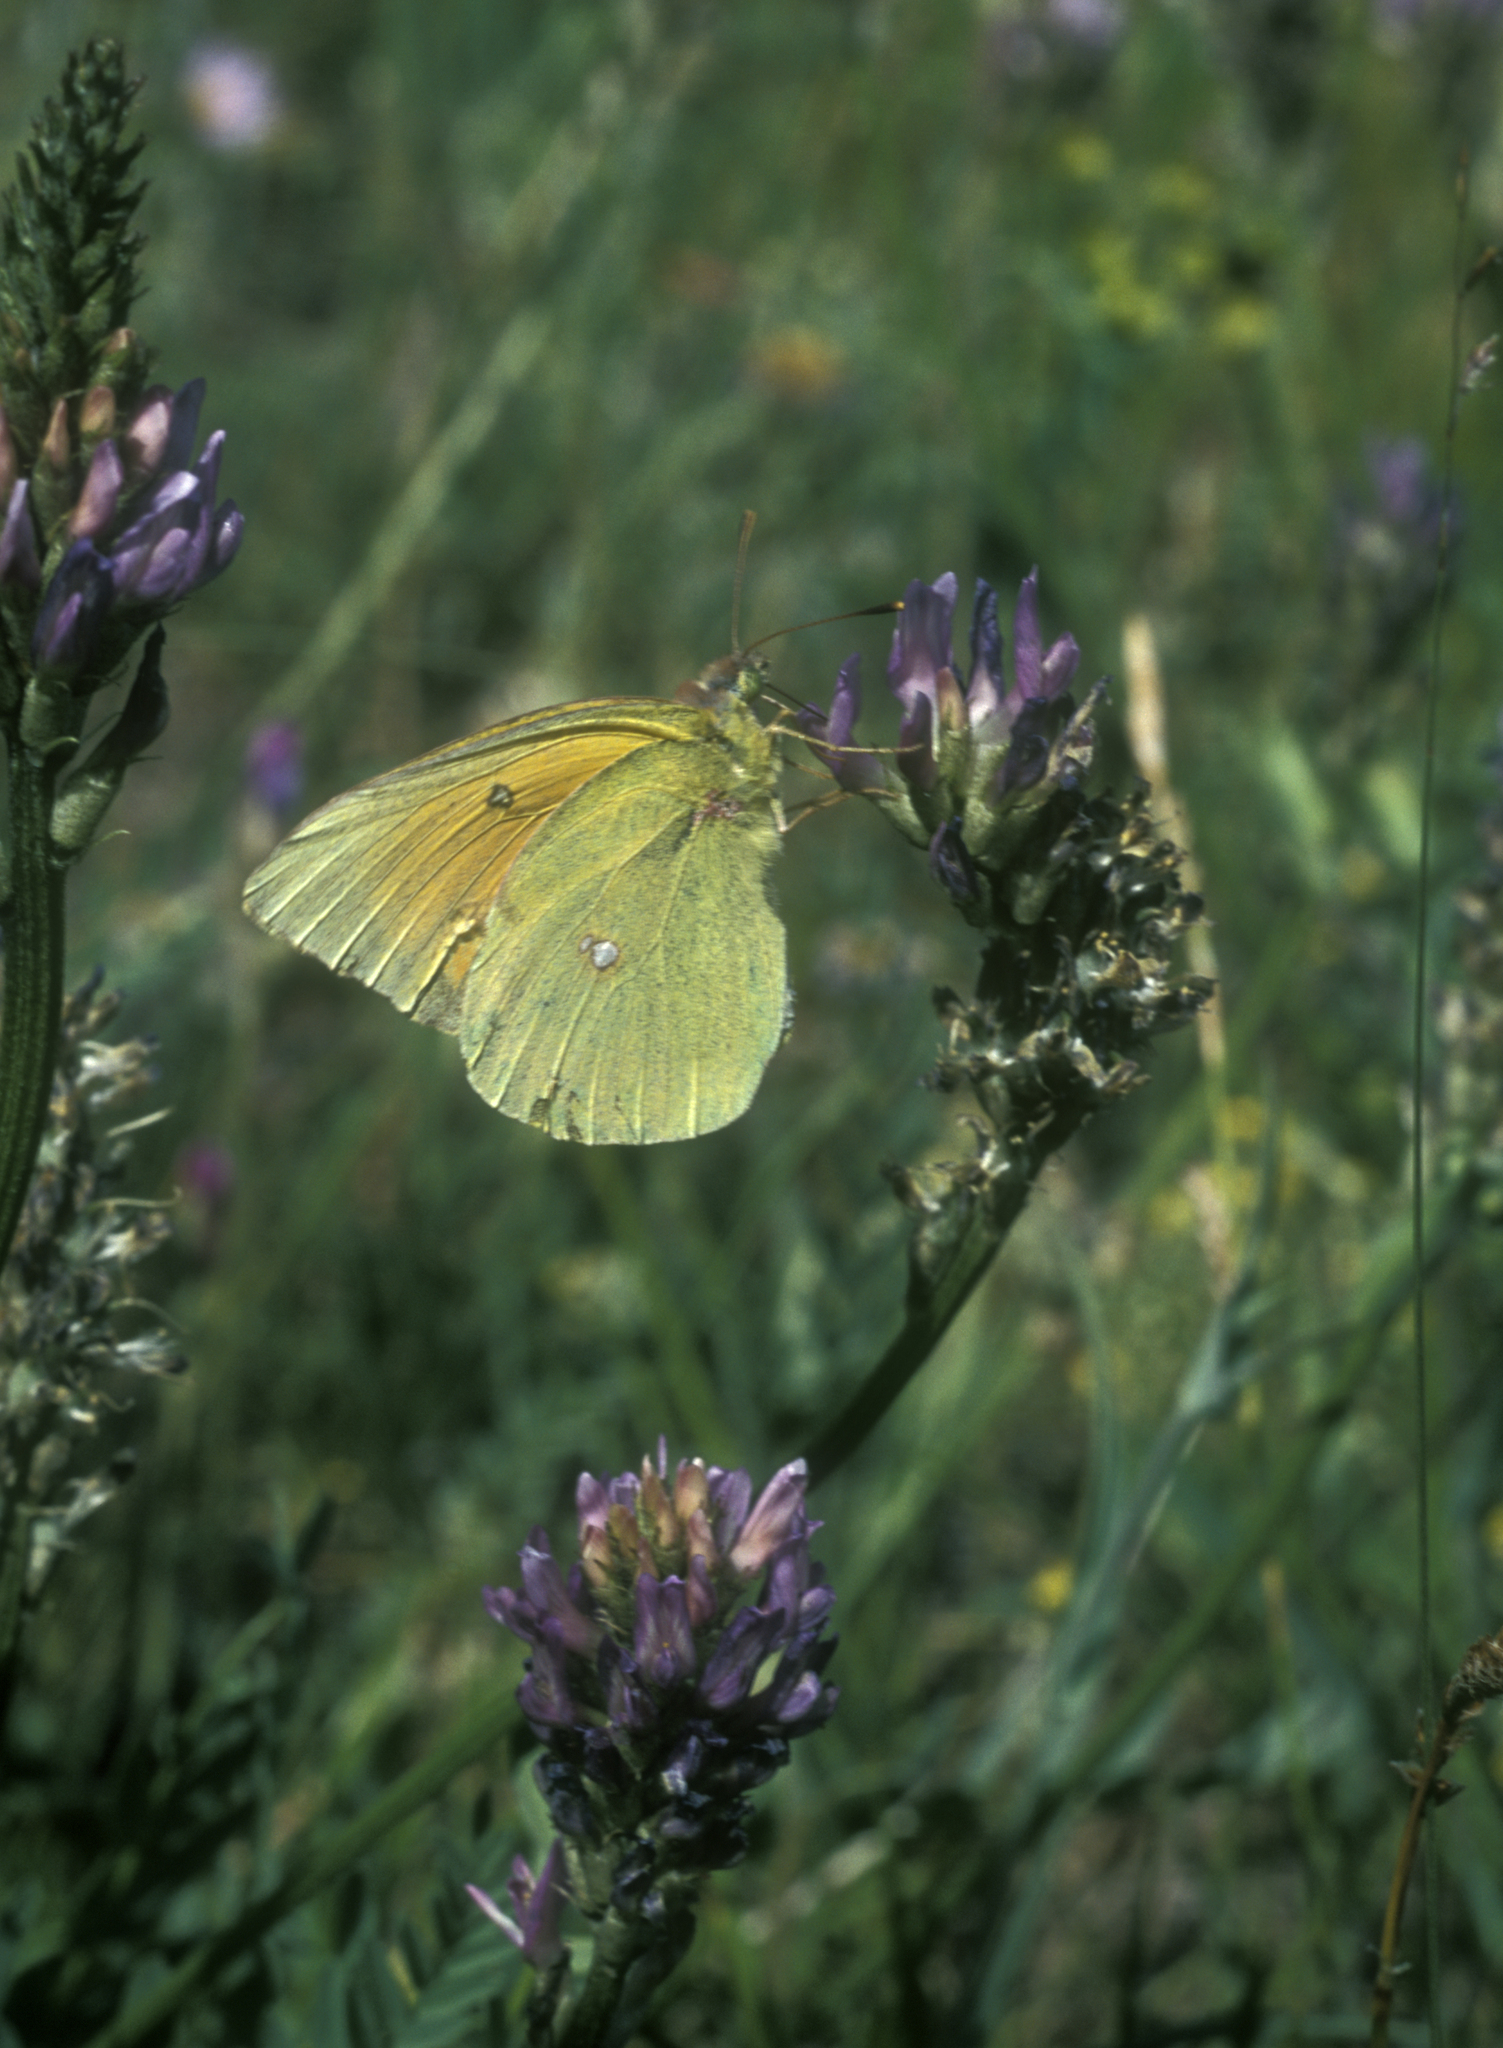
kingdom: Animalia
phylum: Arthropoda
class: Insecta
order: Lepidoptera
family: Pieridae
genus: Colias
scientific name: Colias heos
